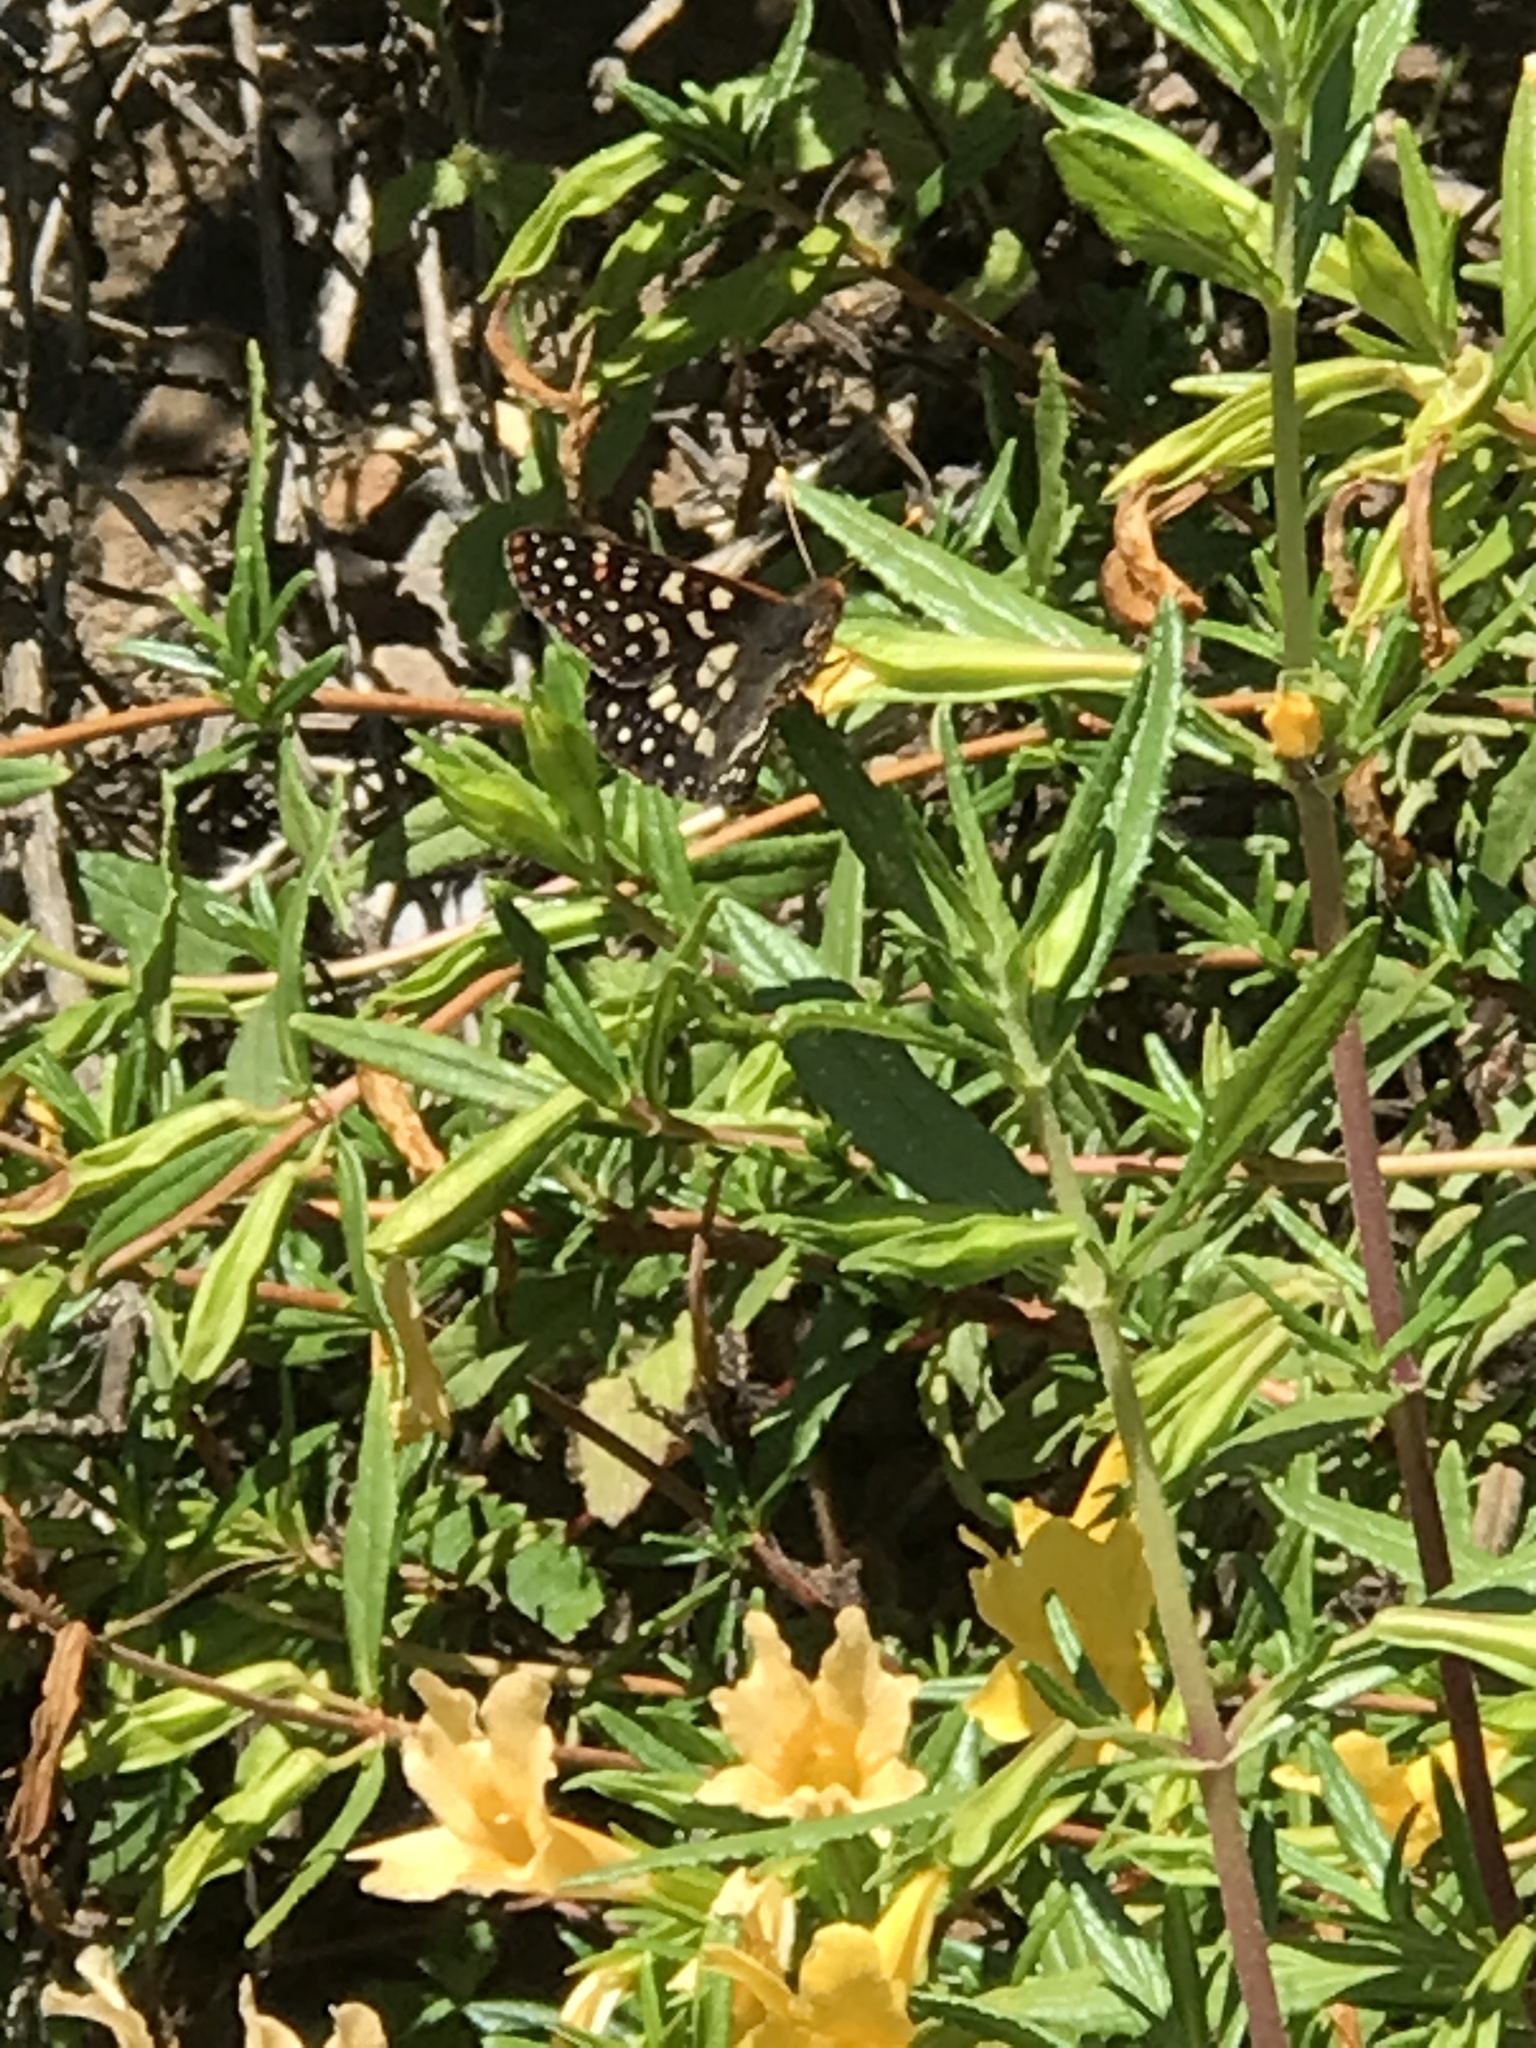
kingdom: Animalia
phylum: Arthropoda
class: Insecta
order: Lepidoptera
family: Nymphalidae
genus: Occidryas
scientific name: Occidryas chalcedona
